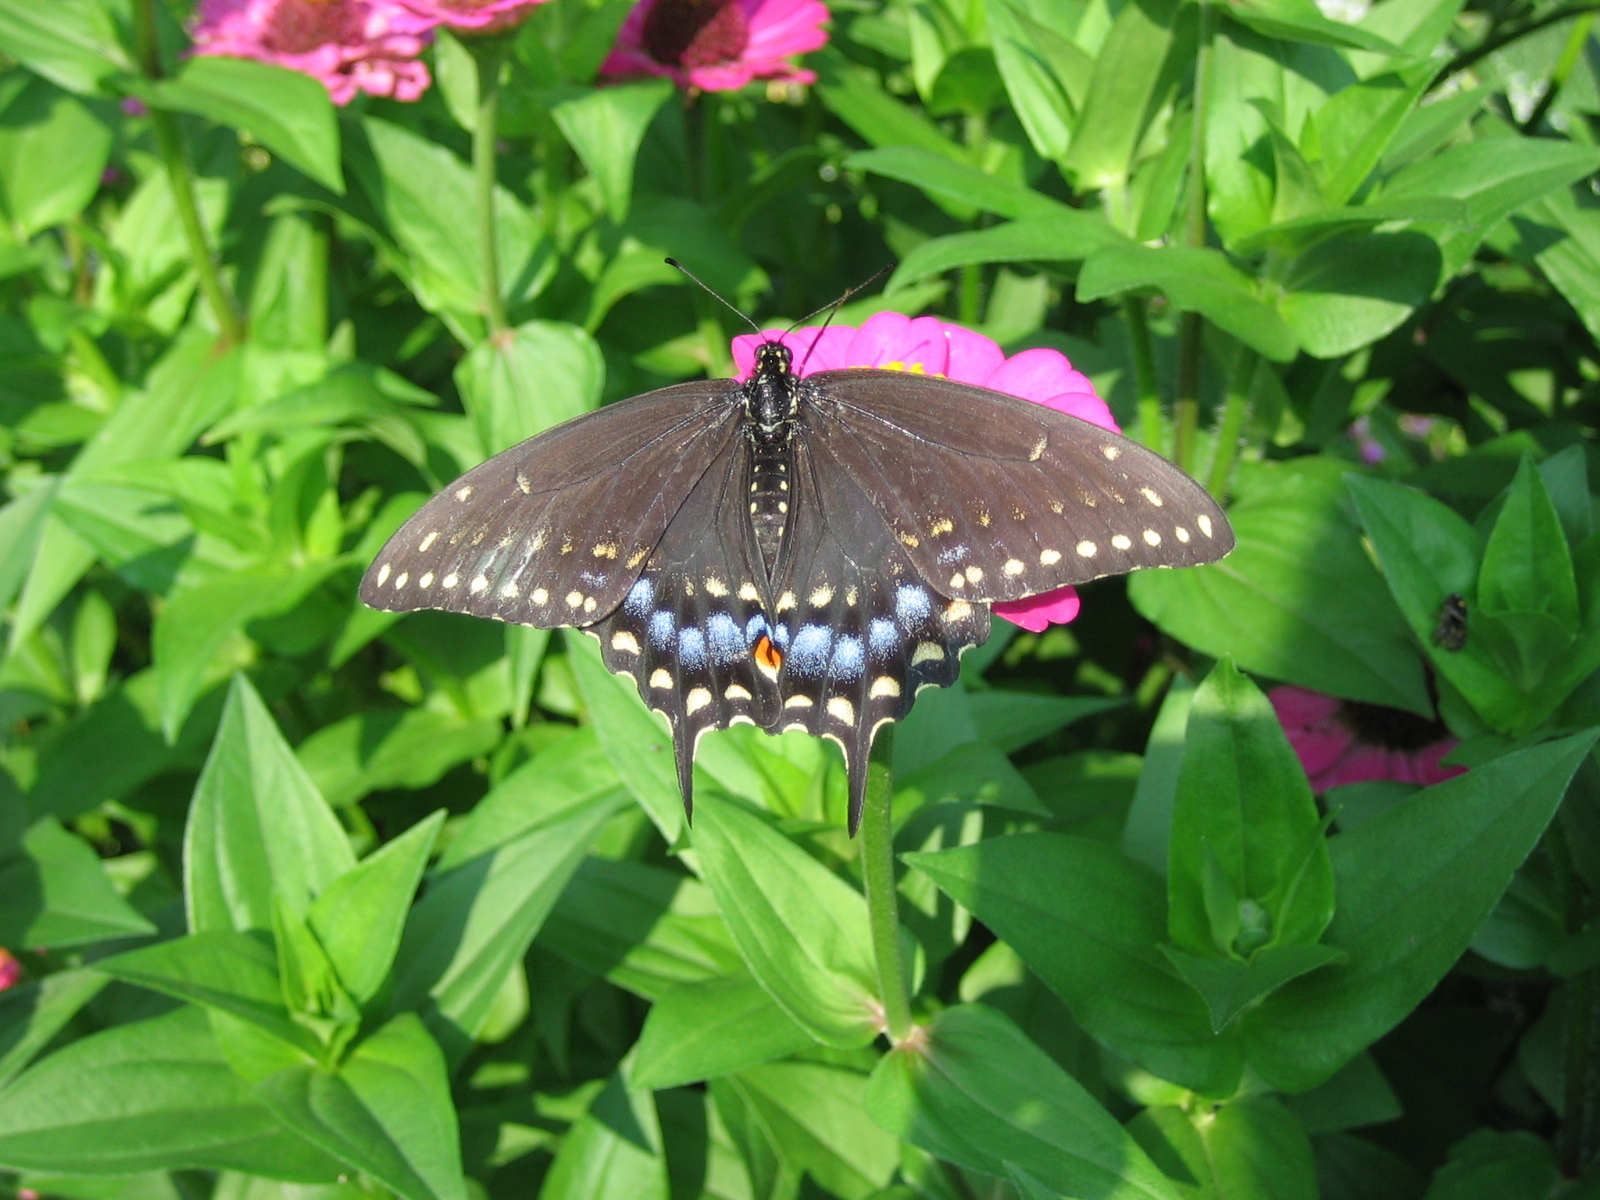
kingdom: Animalia
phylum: Arthropoda
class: Insecta
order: Lepidoptera
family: Papilionidae
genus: Papilio
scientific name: Papilio polyxenes
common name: Black swallowtail
